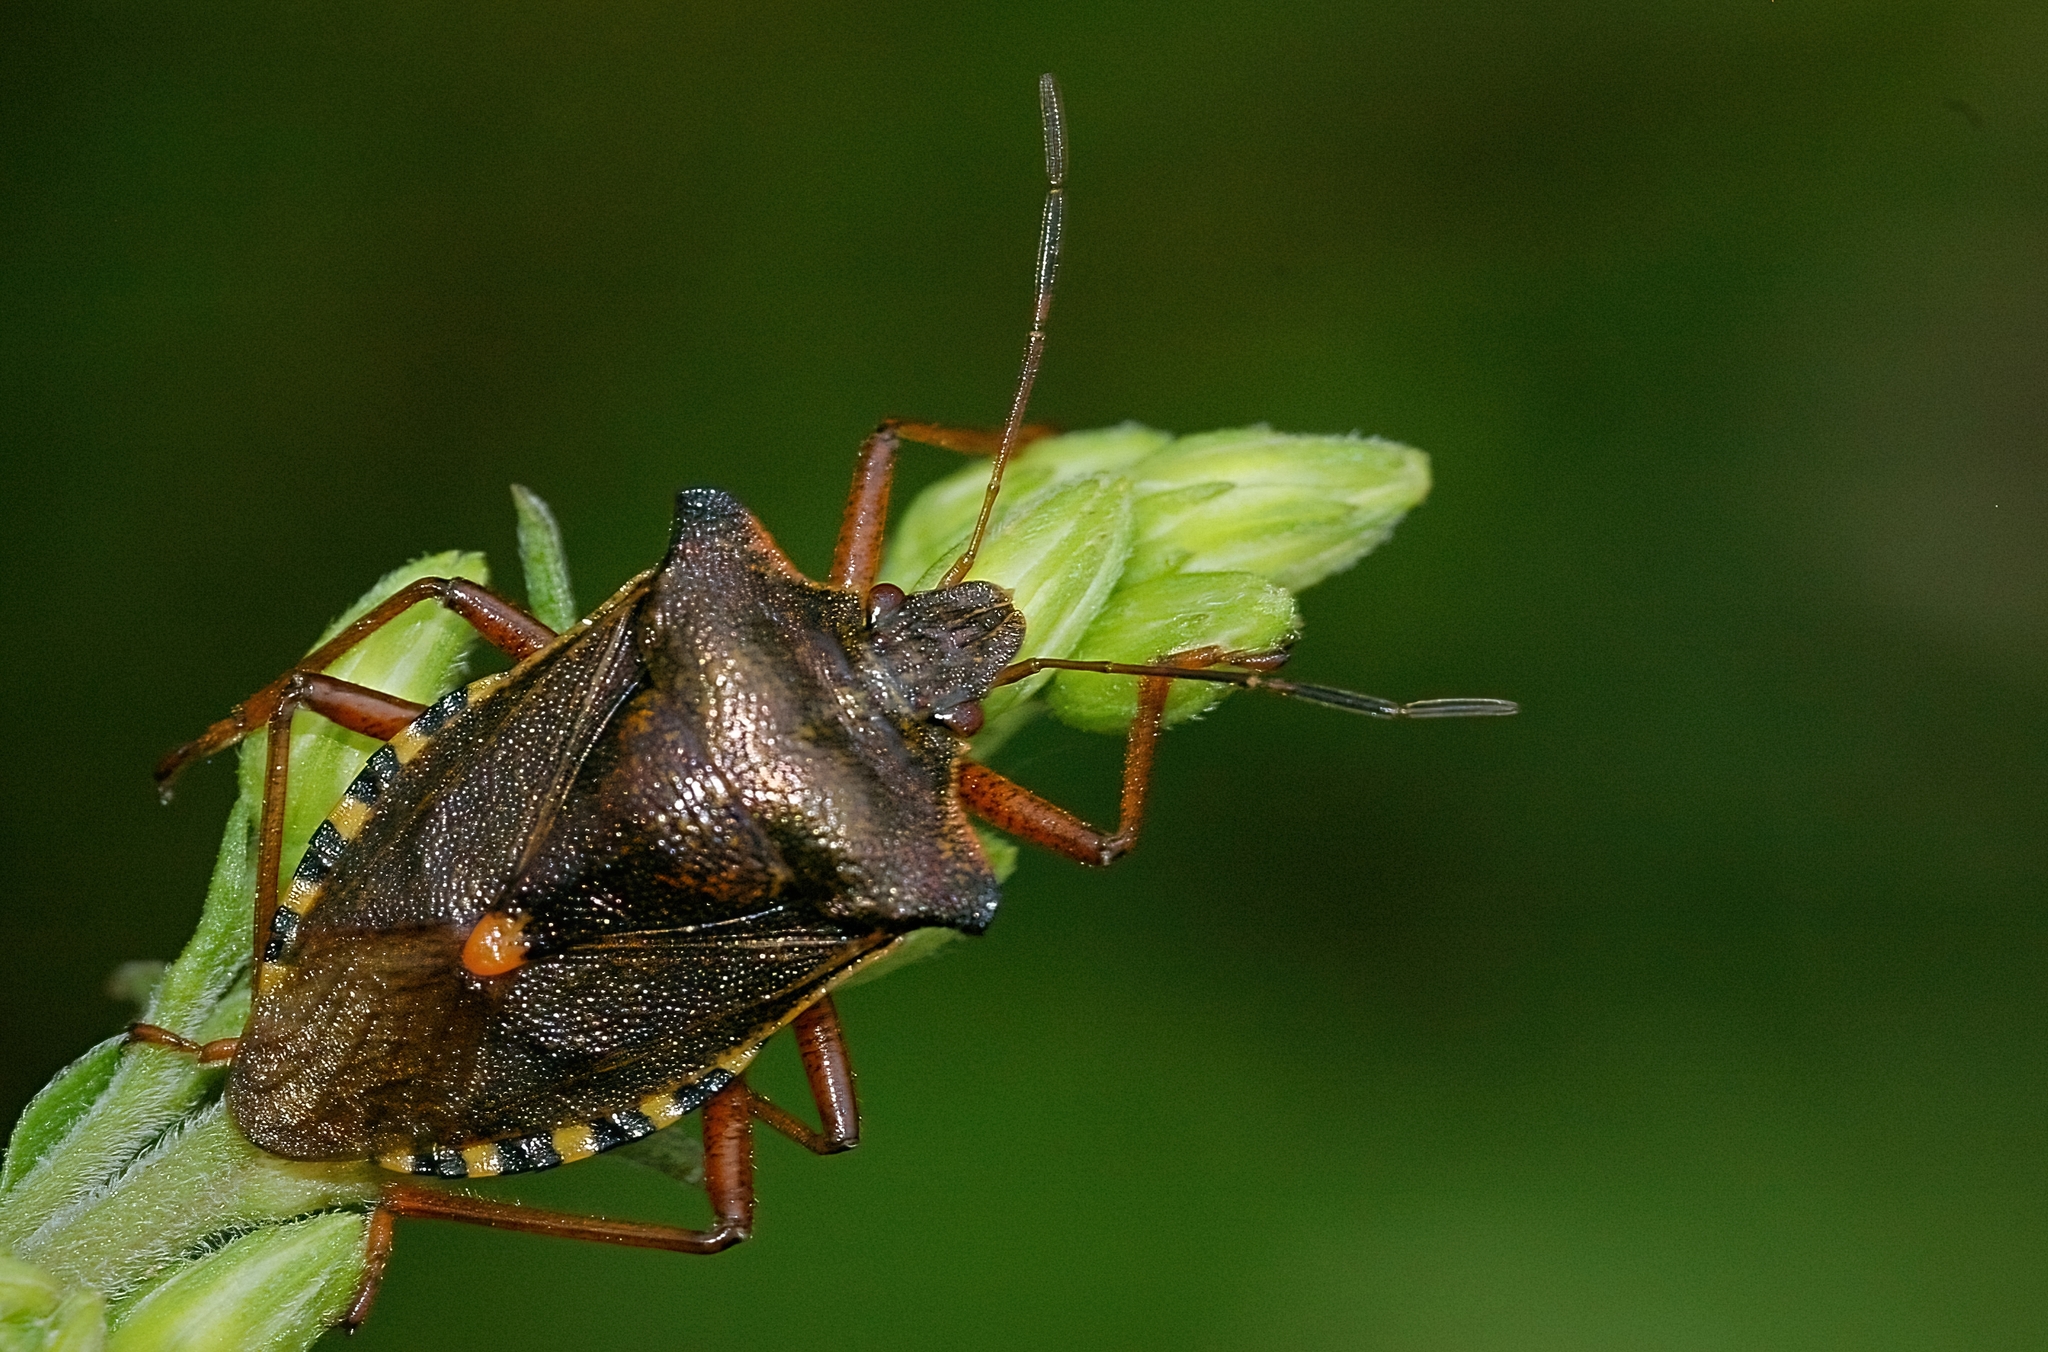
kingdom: Animalia
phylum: Arthropoda
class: Insecta
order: Hemiptera
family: Pentatomidae
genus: Pentatoma
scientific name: Pentatoma rufipes
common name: Forest bug
